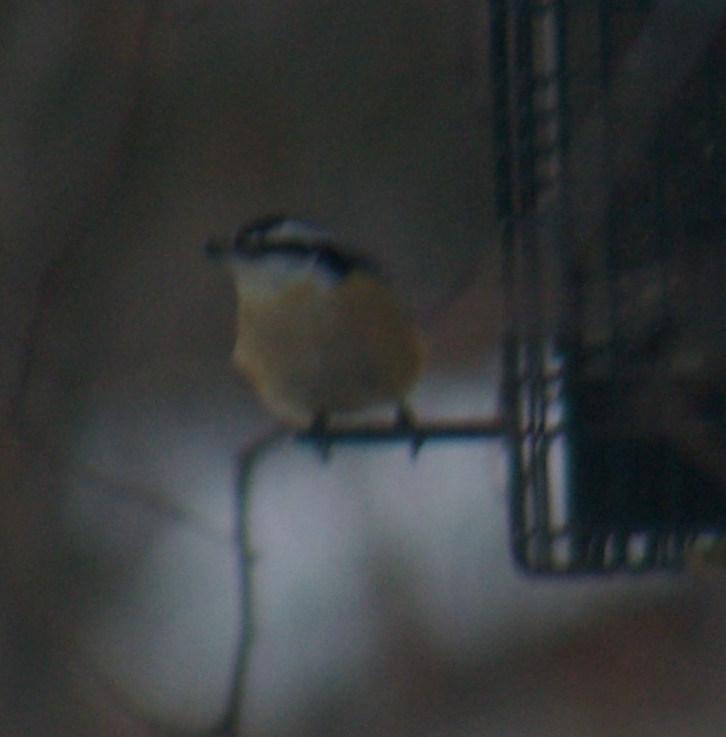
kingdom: Animalia
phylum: Chordata
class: Aves
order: Passeriformes
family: Sittidae
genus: Sitta
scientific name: Sitta canadensis
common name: Red-breasted nuthatch
